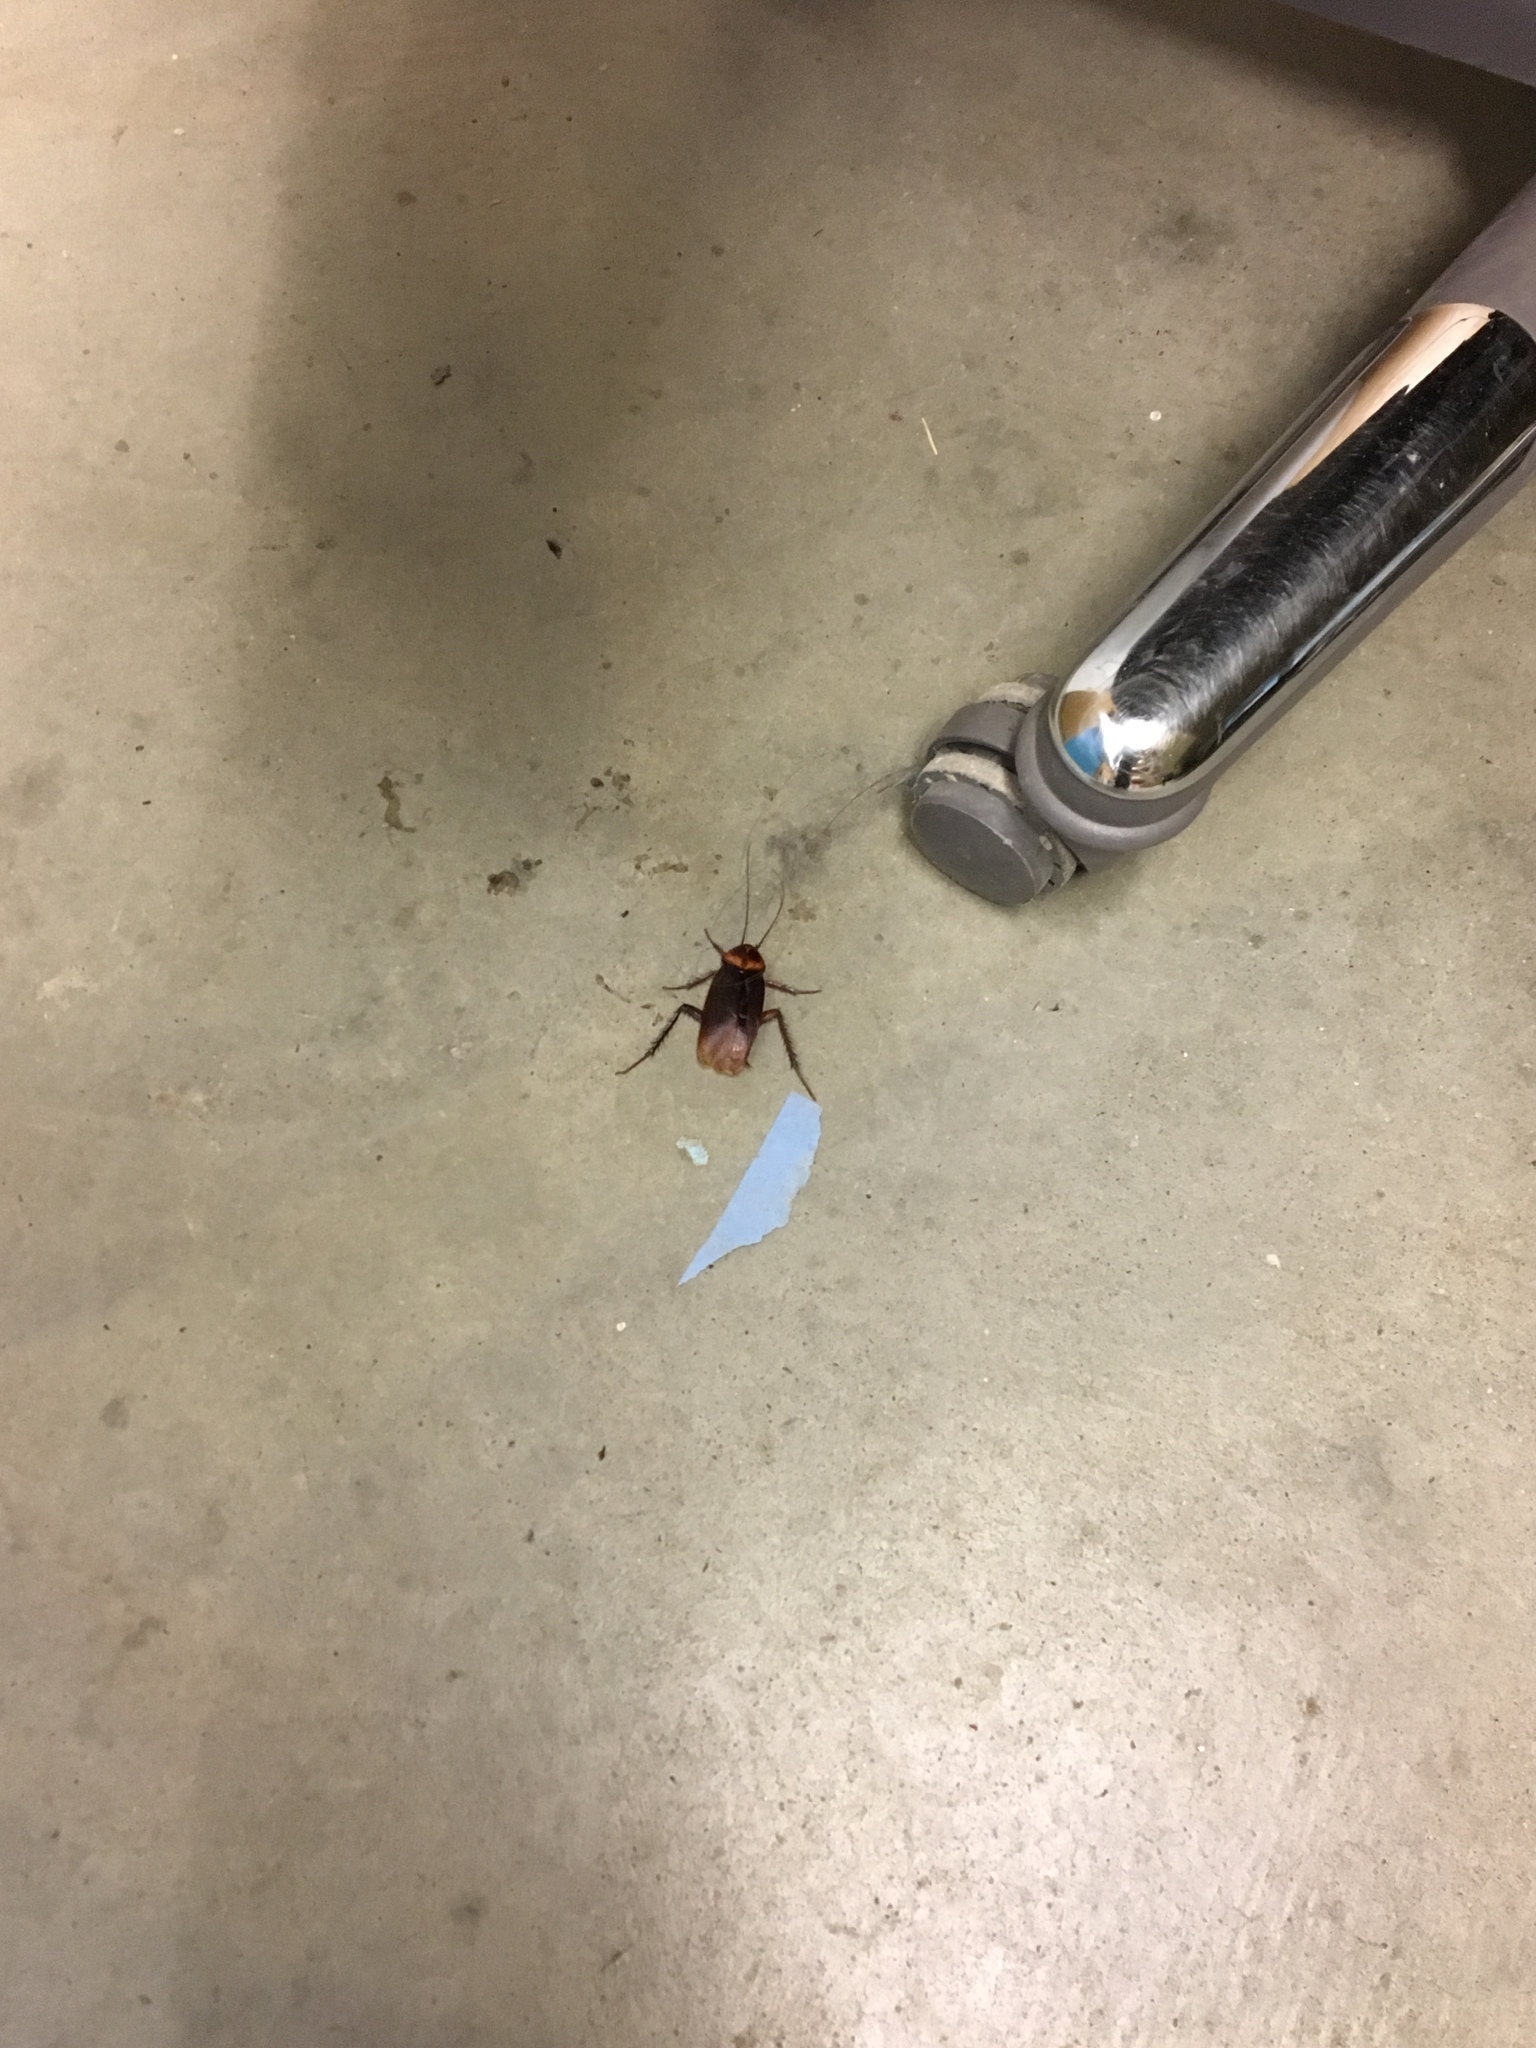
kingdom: Animalia
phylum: Arthropoda
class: Insecta
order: Blattodea
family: Blattidae
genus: Periplaneta
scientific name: Periplaneta americana
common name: American cockroach
